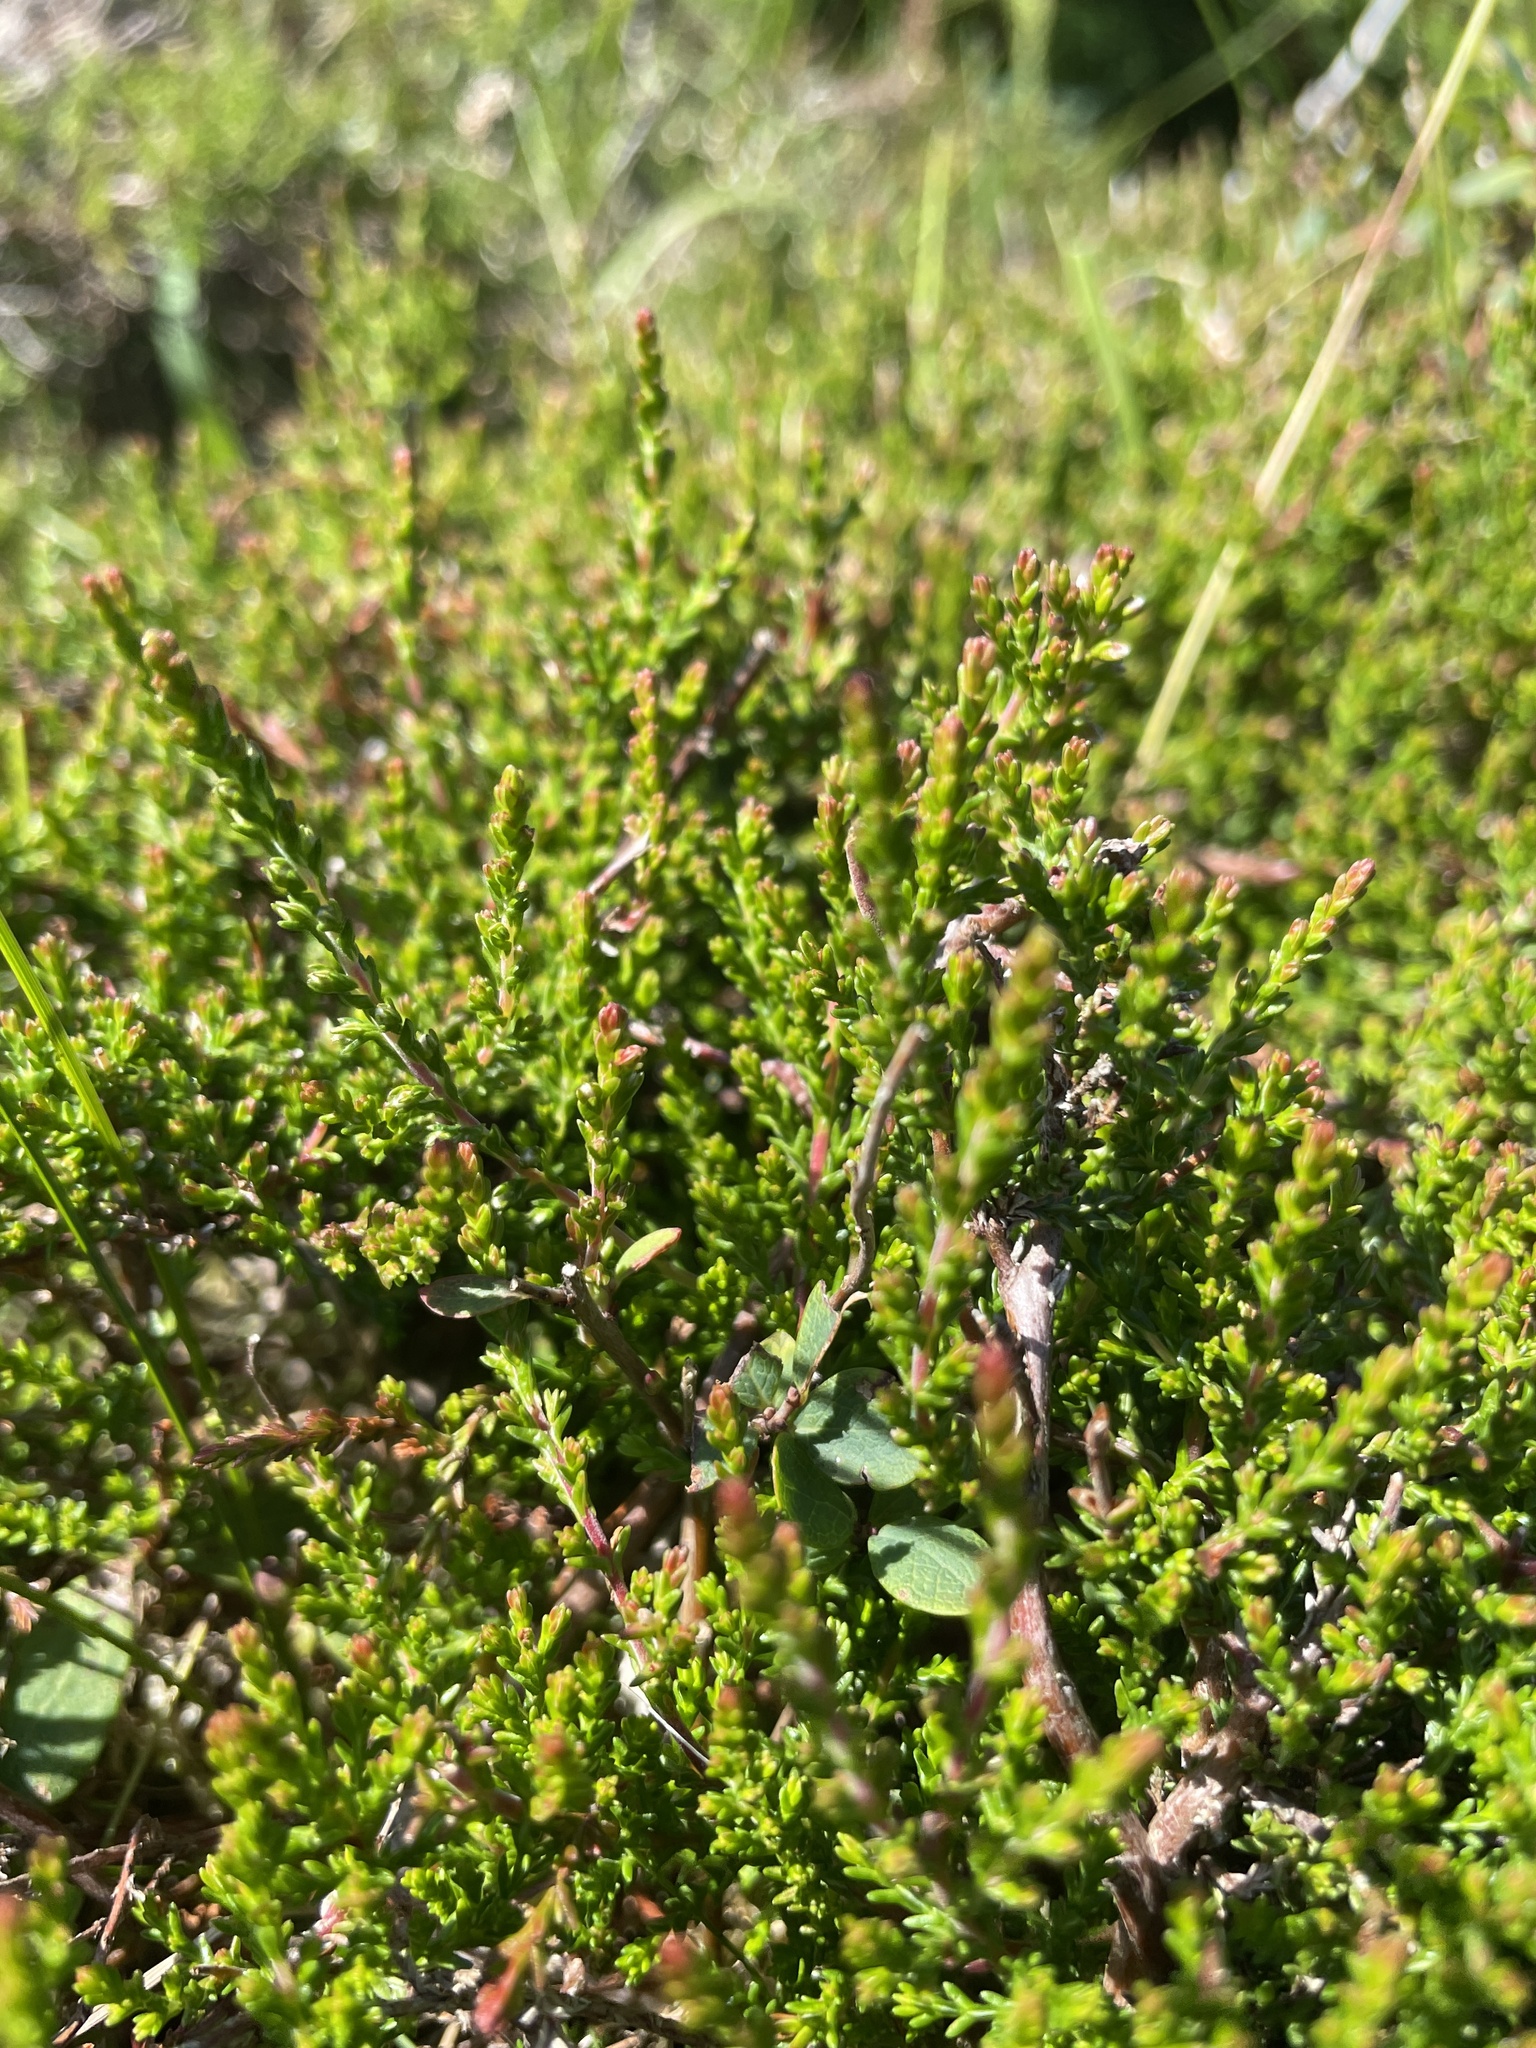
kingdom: Plantae
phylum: Tracheophyta
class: Magnoliopsida
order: Ericales
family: Ericaceae
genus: Calluna
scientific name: Calluna vulgaris
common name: Heather
